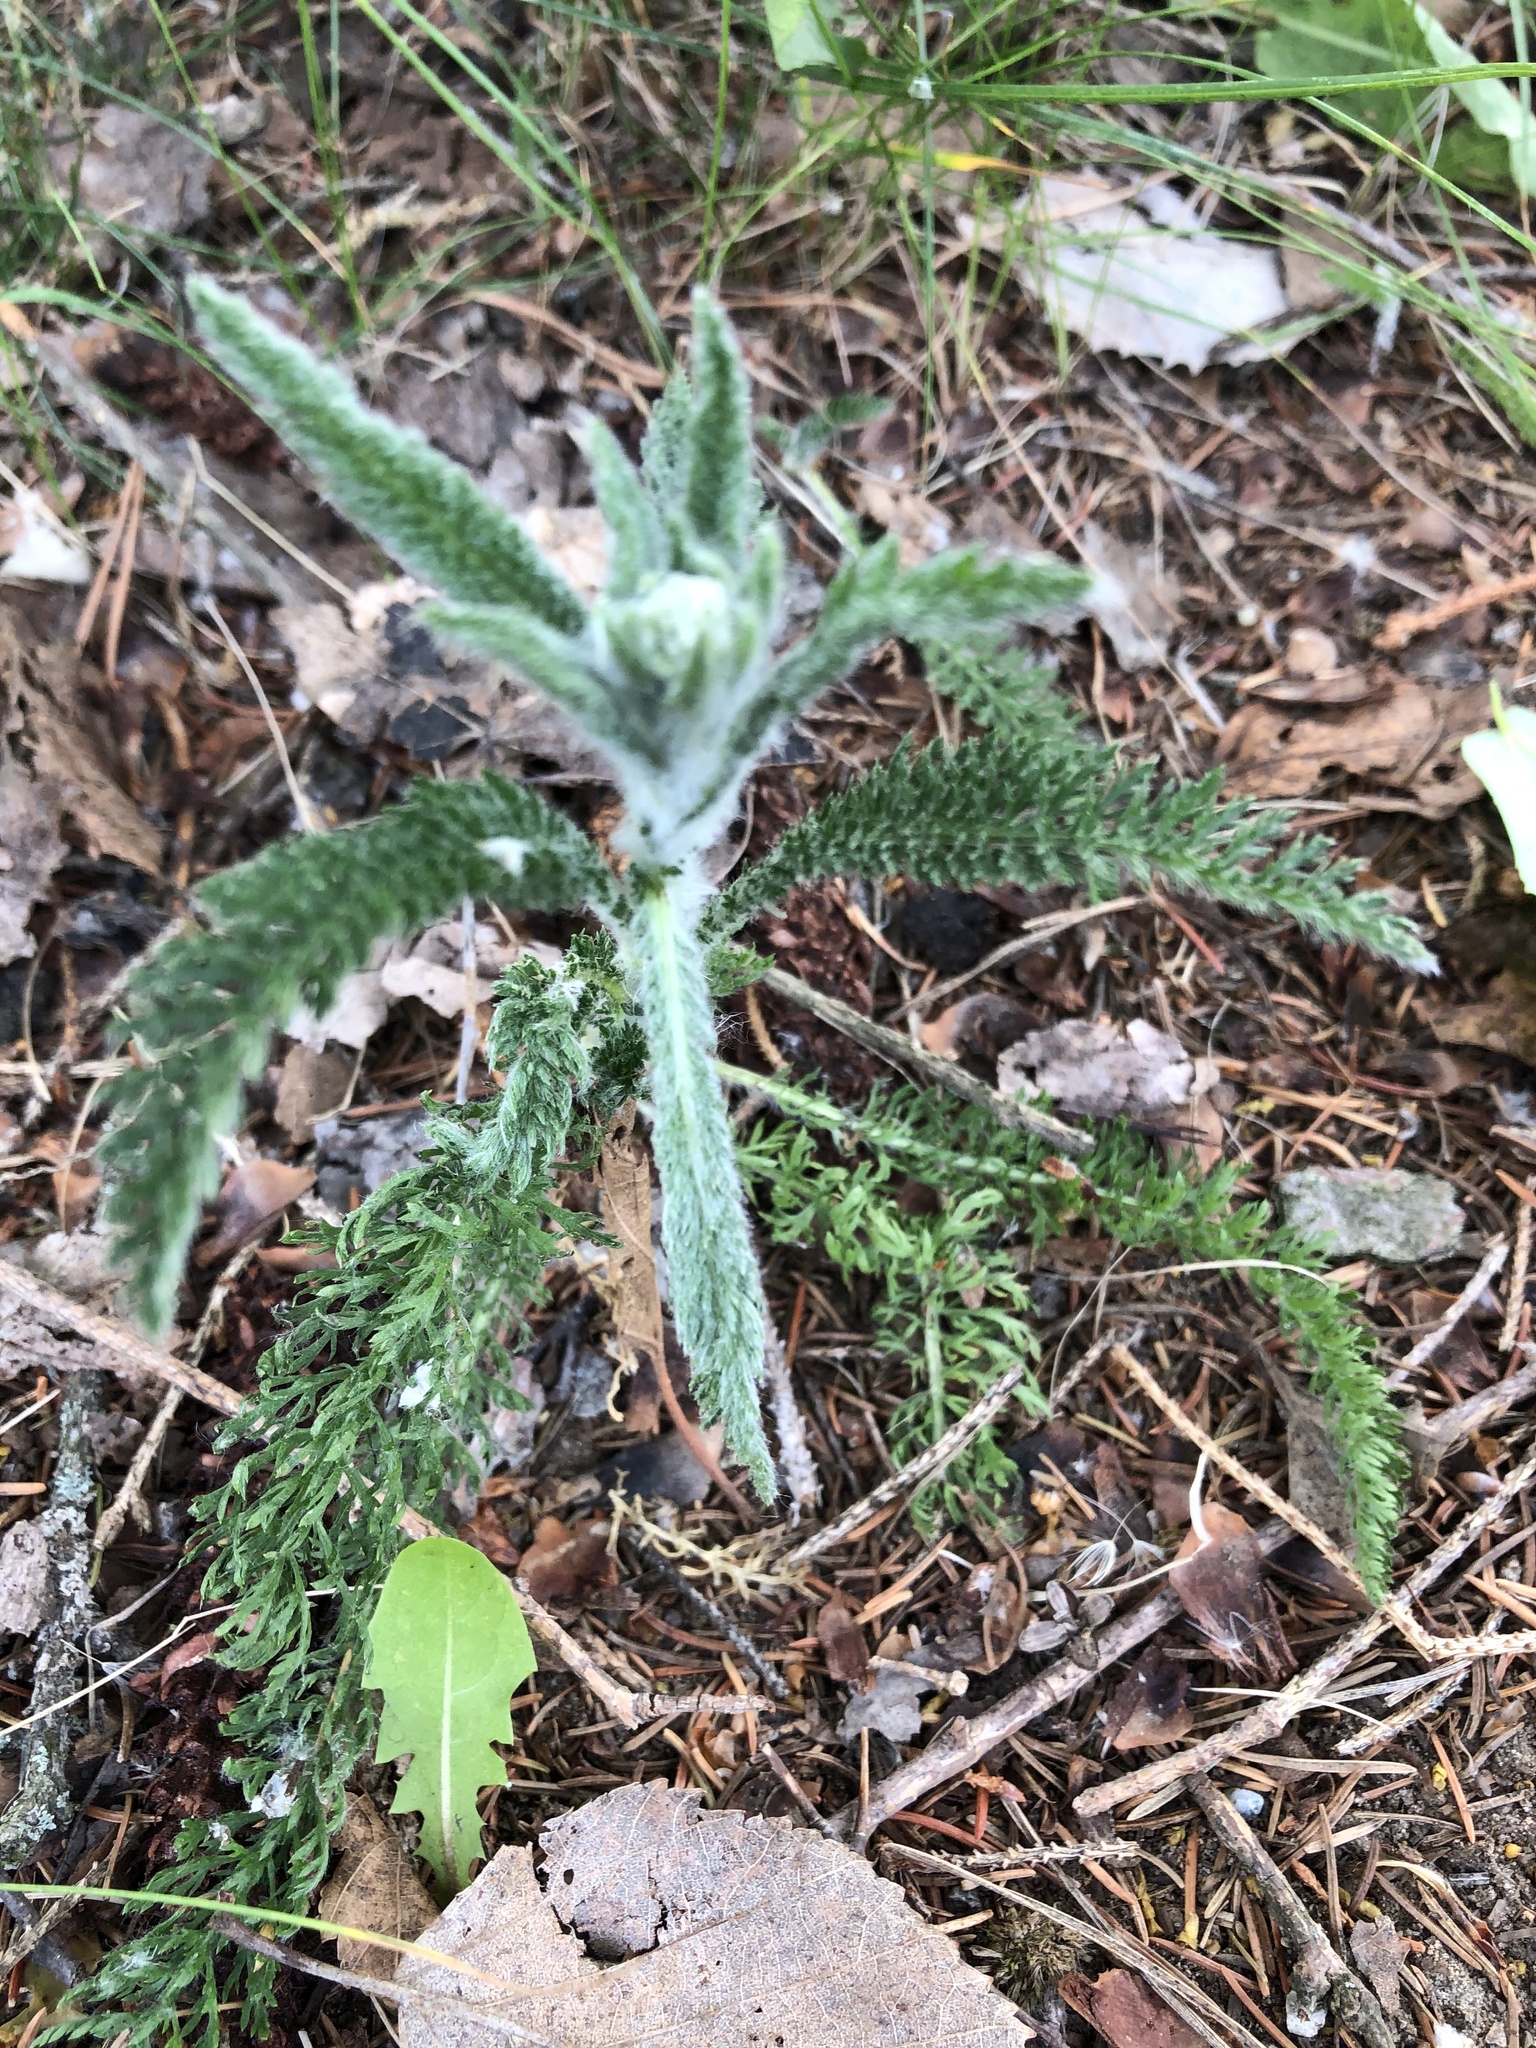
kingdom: Plantae
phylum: Tracheophyta
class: Magnoliopsida
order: Asterales
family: Asteraceae
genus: Achillea
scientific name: Achillea millefolium
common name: Yarrow
